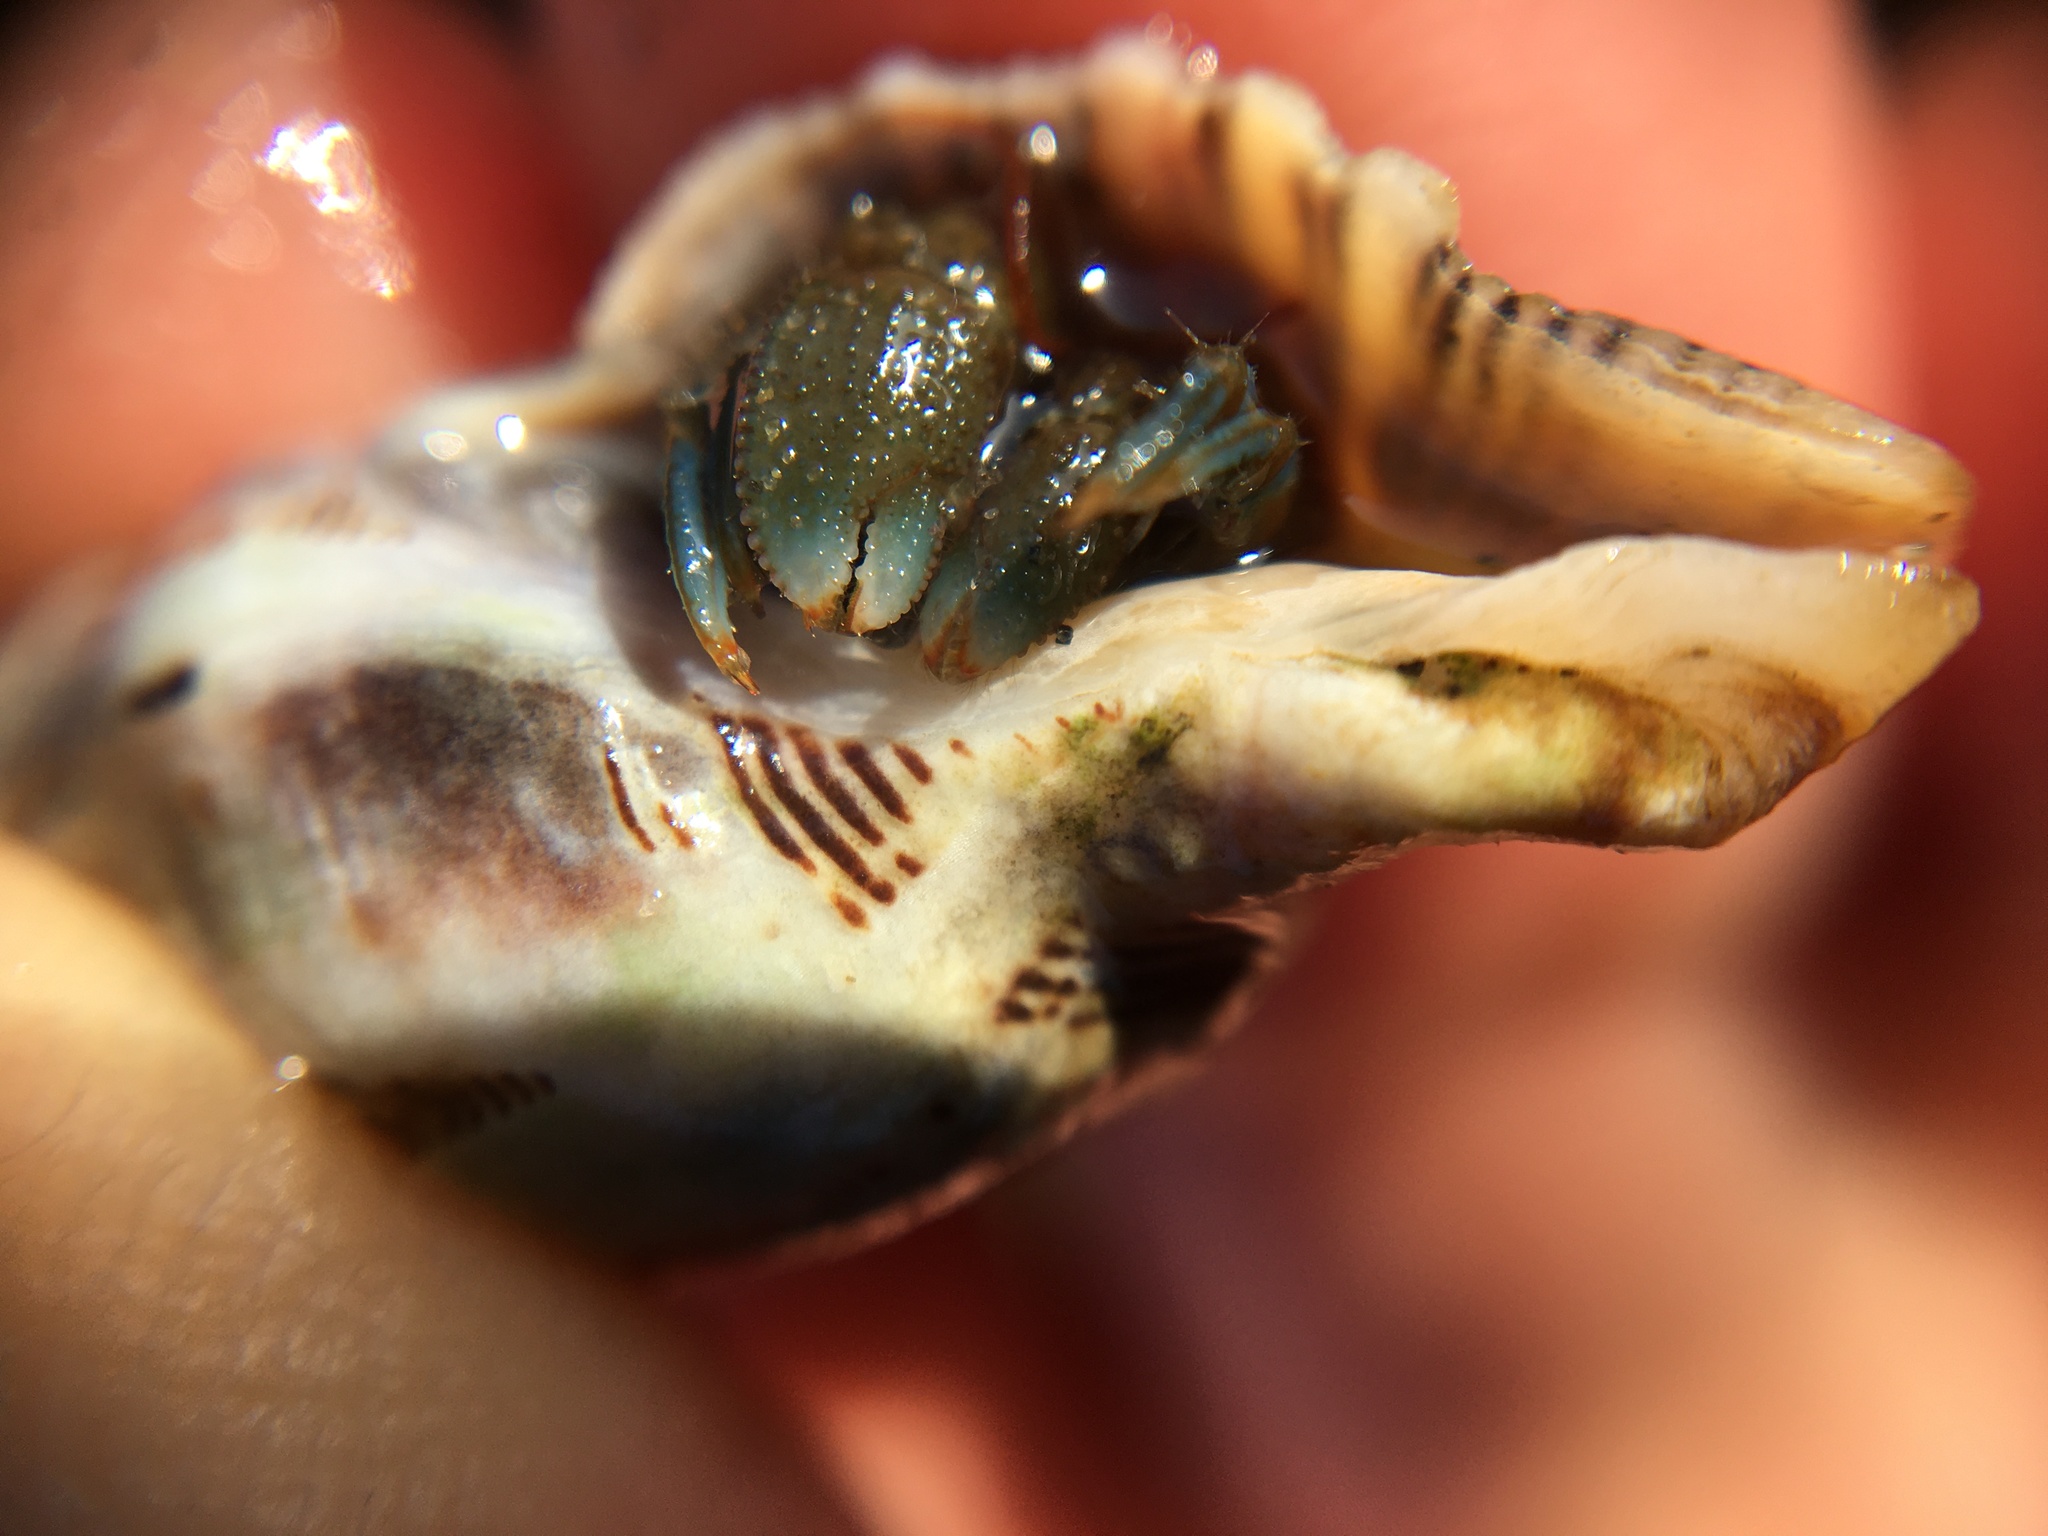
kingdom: Animalia
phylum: Arthropoda
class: Malacostraca
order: Decapoda
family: Paguridae
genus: Pagurus
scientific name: Pagurus samuelis
